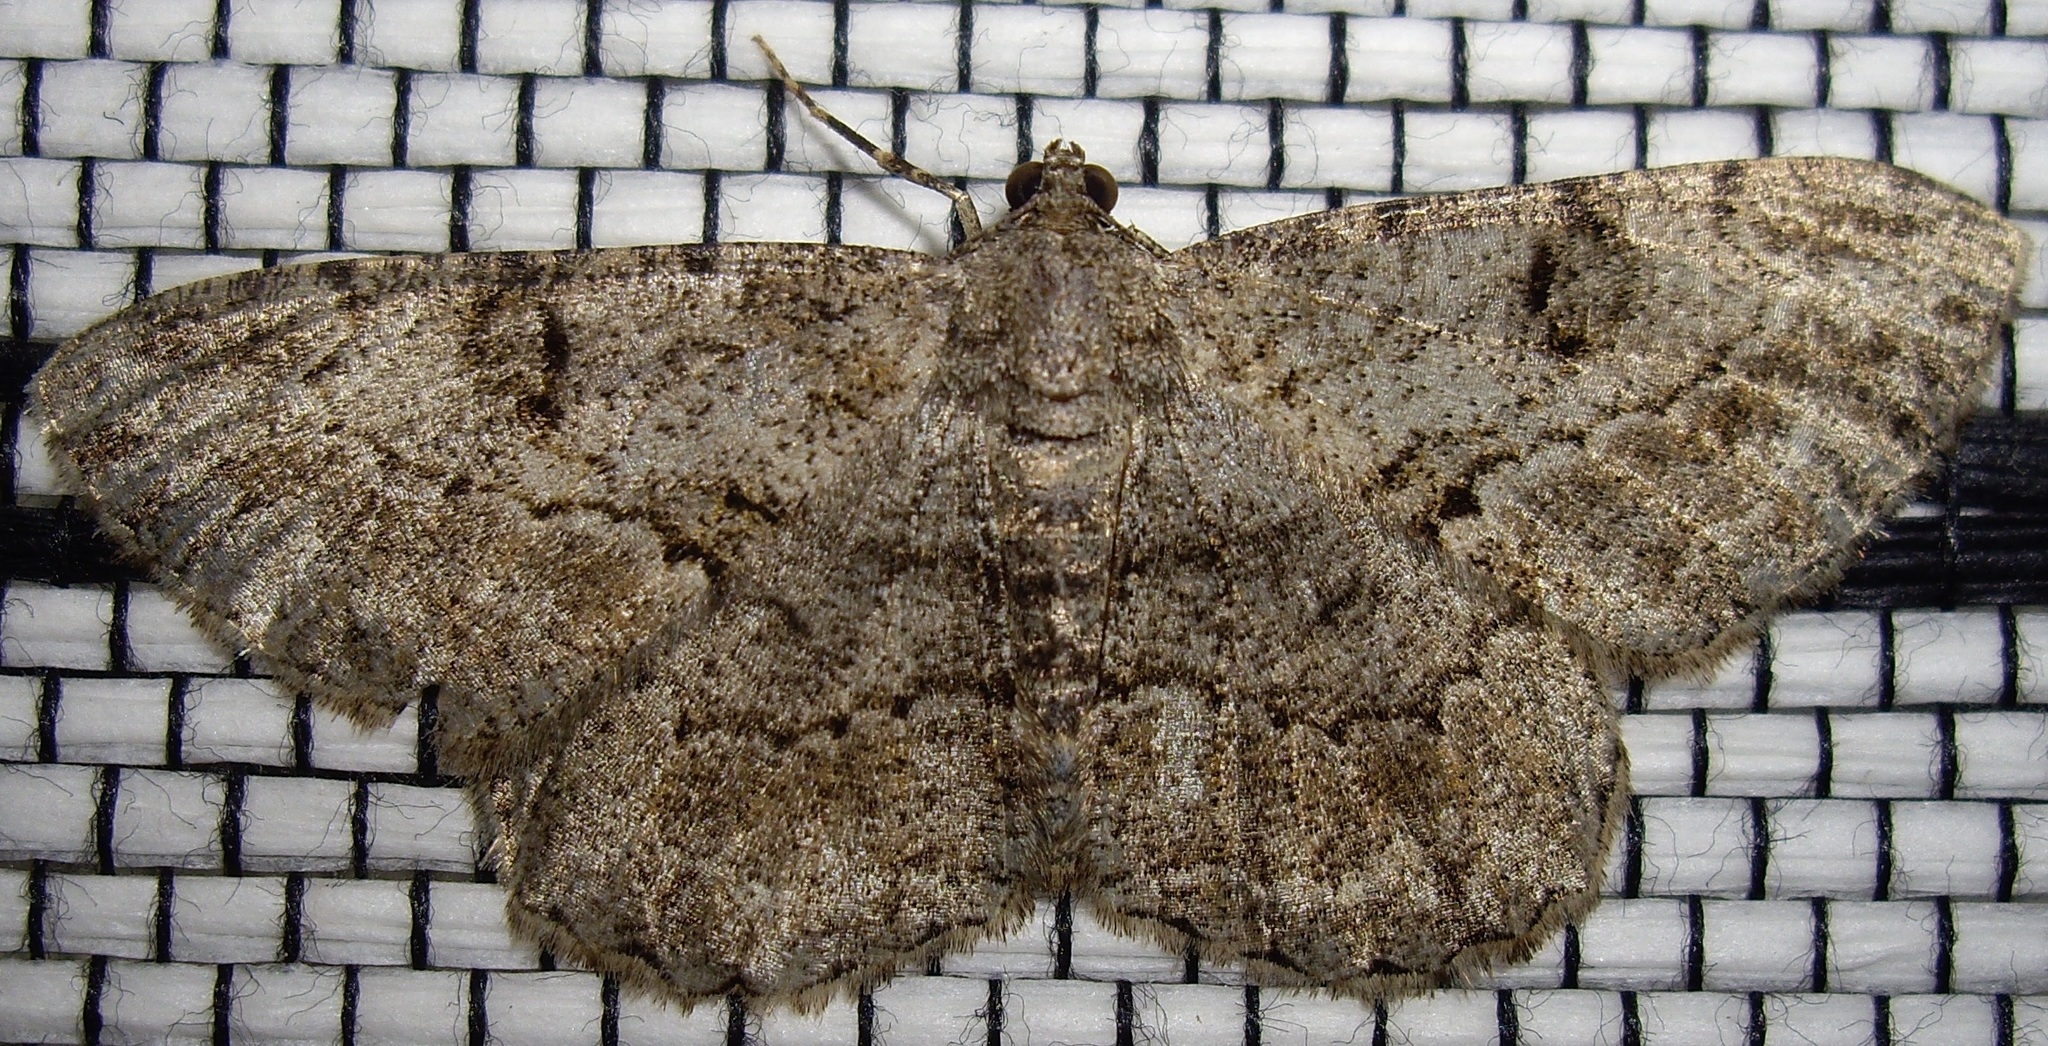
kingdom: Animalia
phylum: Arthropoda
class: Insecta
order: Lepidoptera
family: Geometridae
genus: Peribatodes
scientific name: Peribatodes rhomboidaria
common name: Willow beauty
